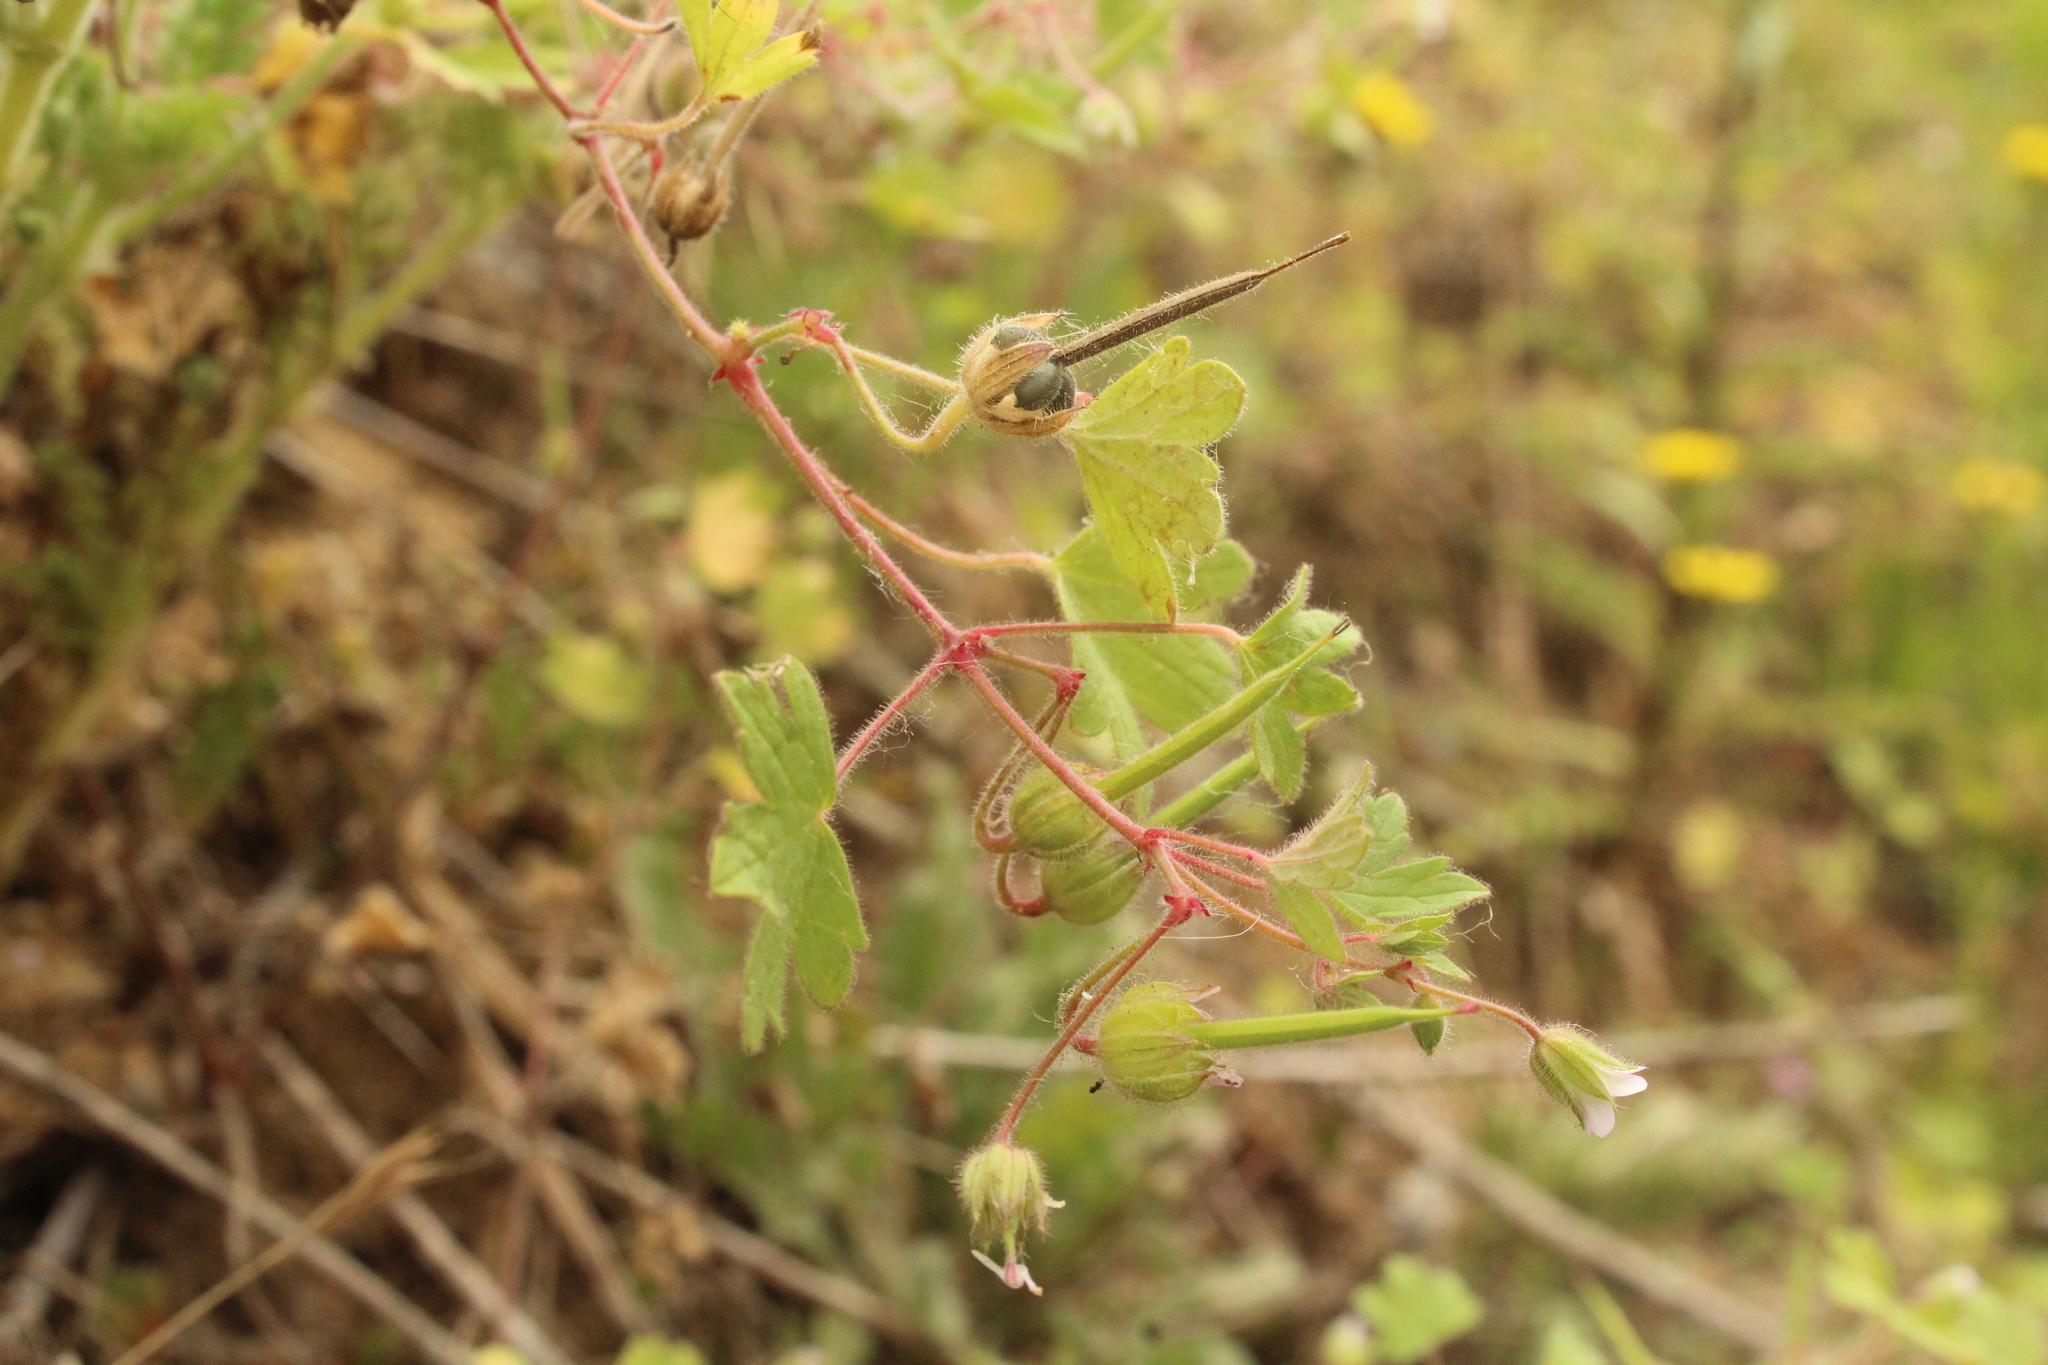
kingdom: Plantae
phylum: Tracheophyta
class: Magnoliopsida
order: Geraniales
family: Geraniaceae
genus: Geranium
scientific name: Geranium rotundifolium
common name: Round-leaved crane's-bill
